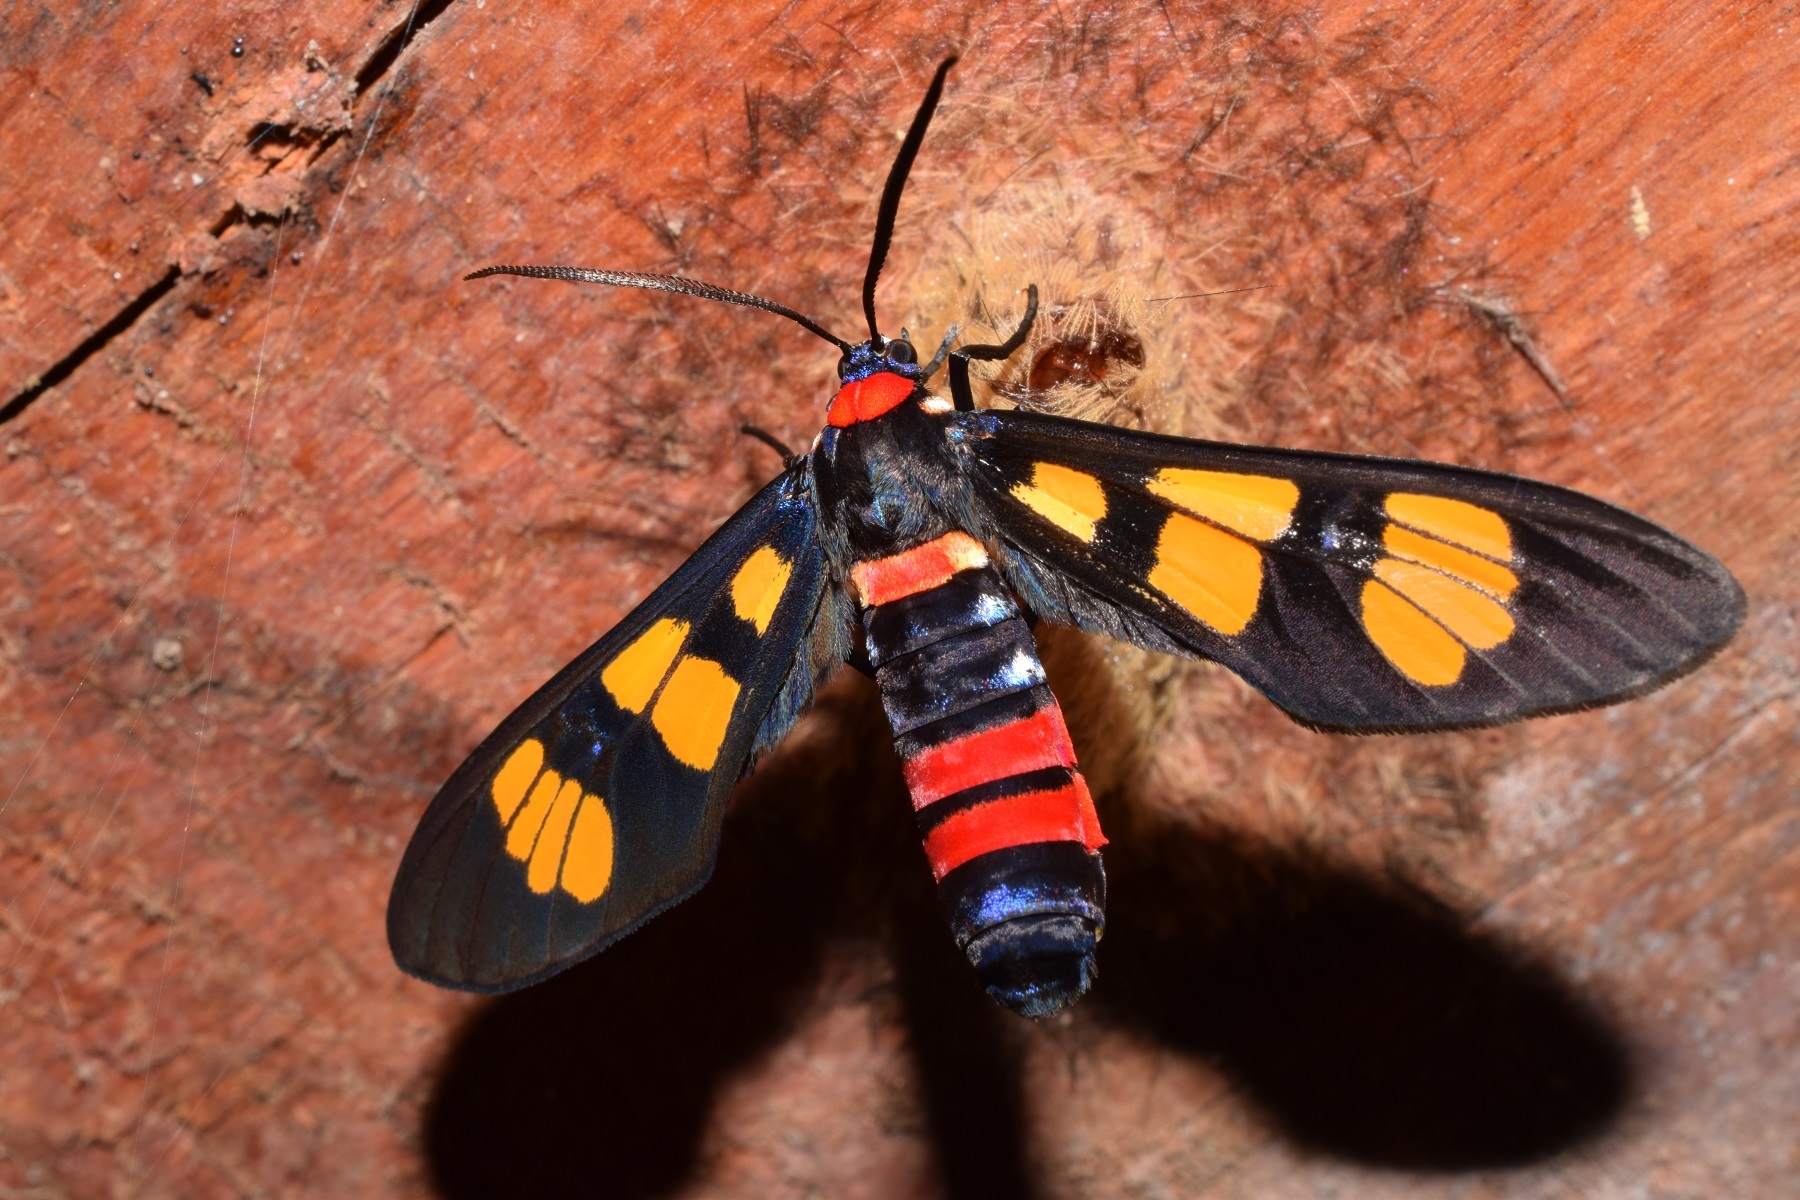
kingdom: Animalia
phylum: Arthropoda
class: Insecta
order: Lepidoptera
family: Erebidae
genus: Euchromia
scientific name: Euchromia polymena
